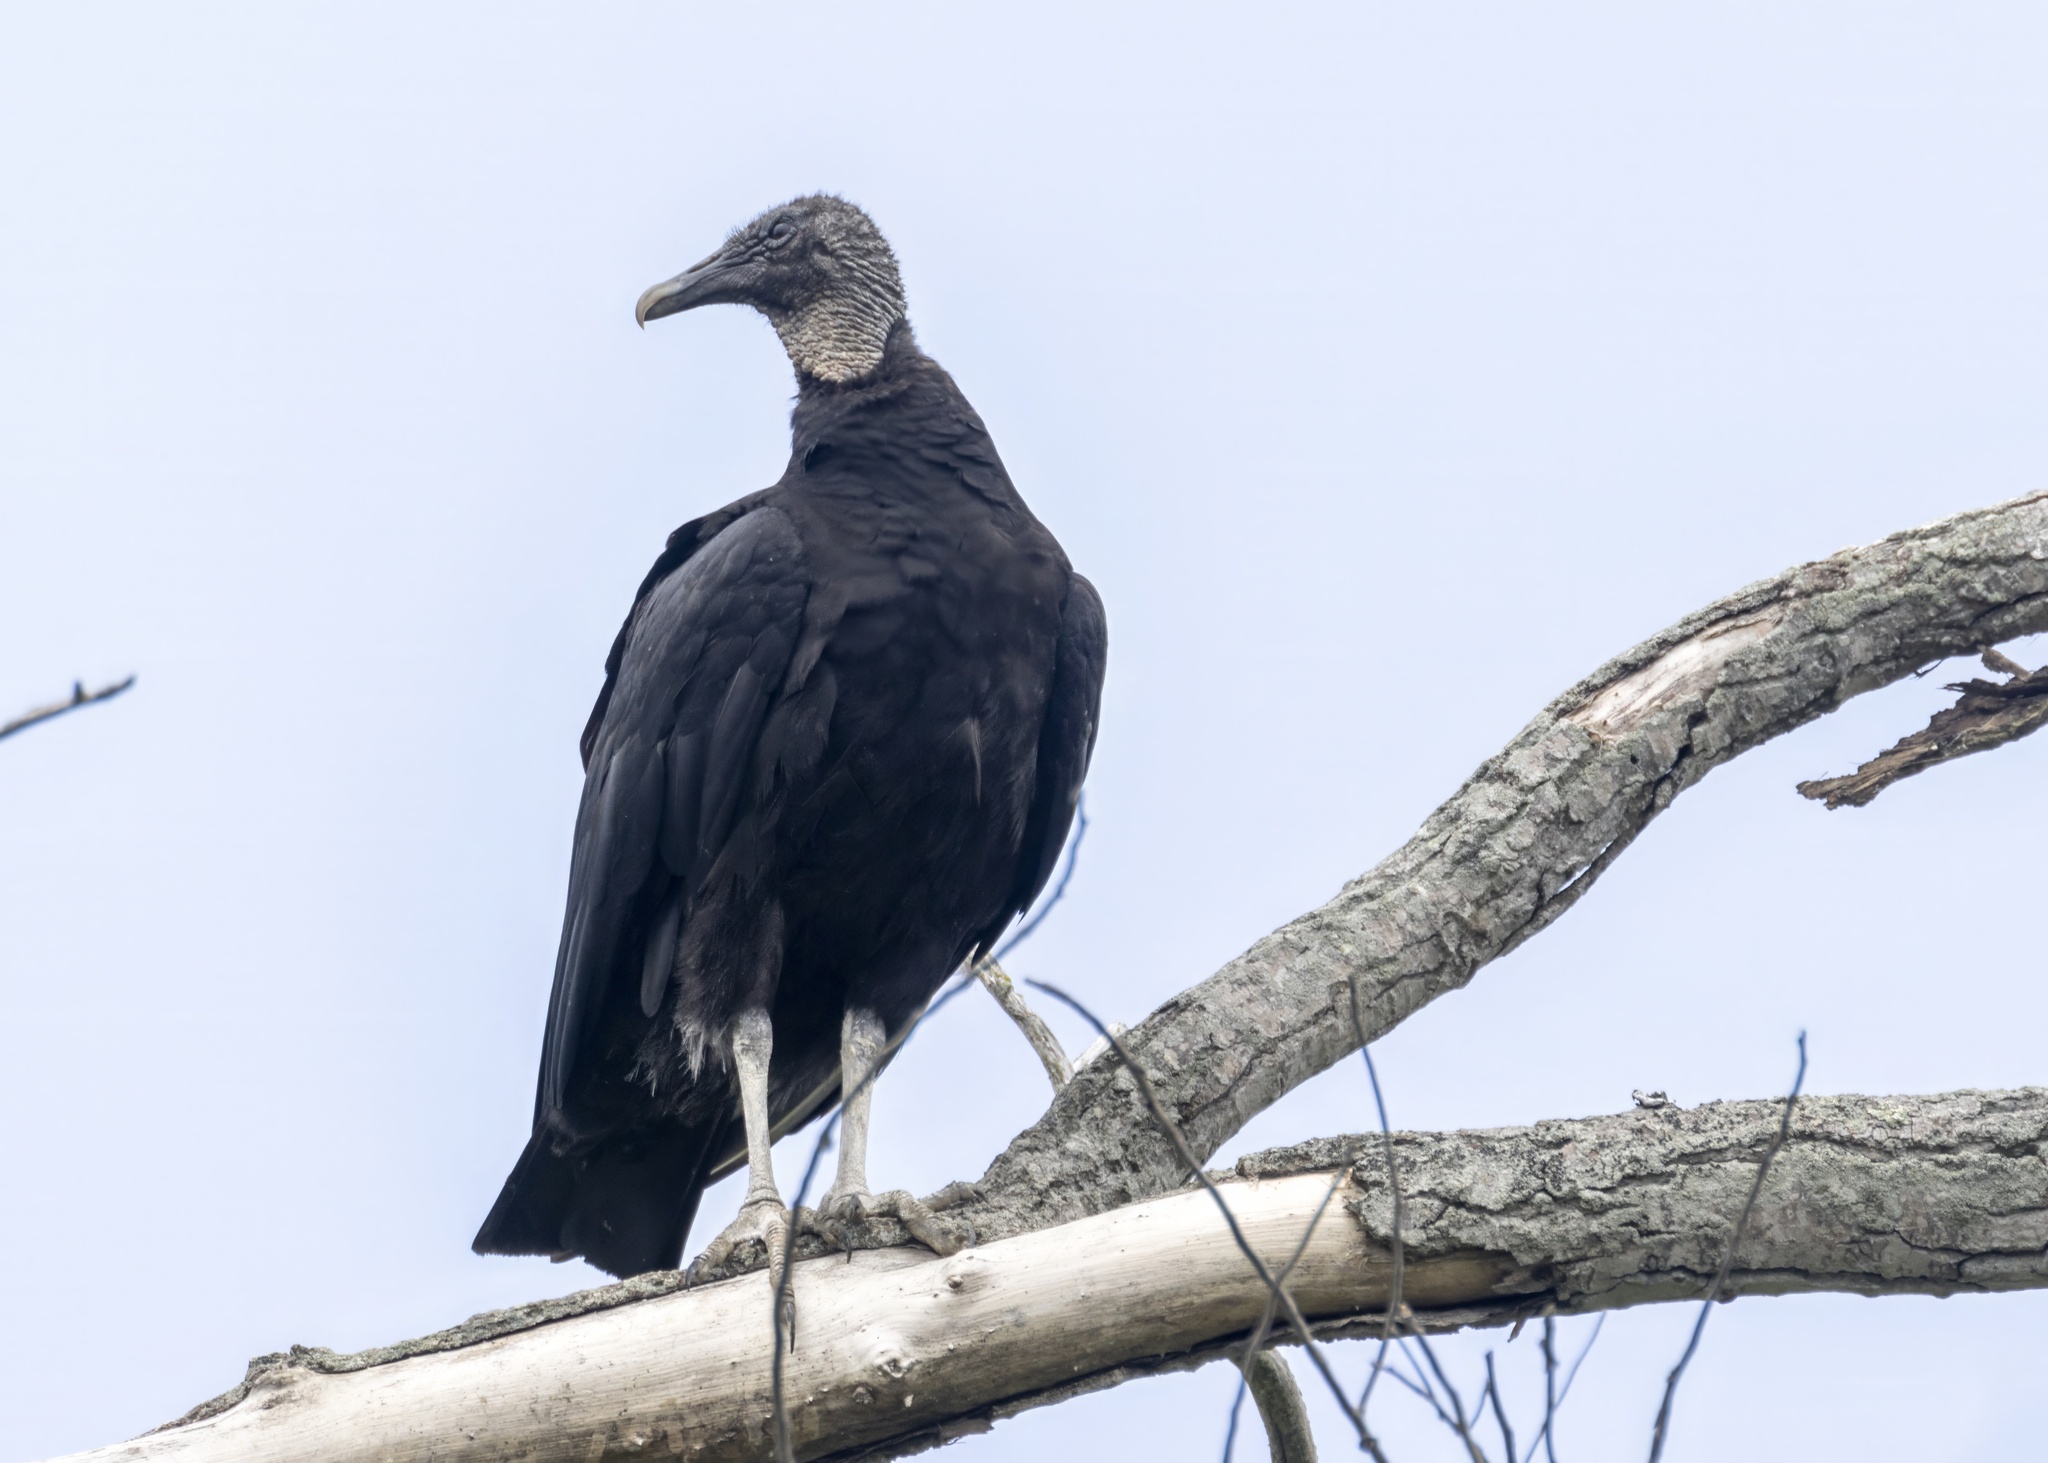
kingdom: Animalia
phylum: Chordata
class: Aves
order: Accipitriformes
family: Cathartidae
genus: Coragyps
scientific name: Coragyps atratus
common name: Black vulture
